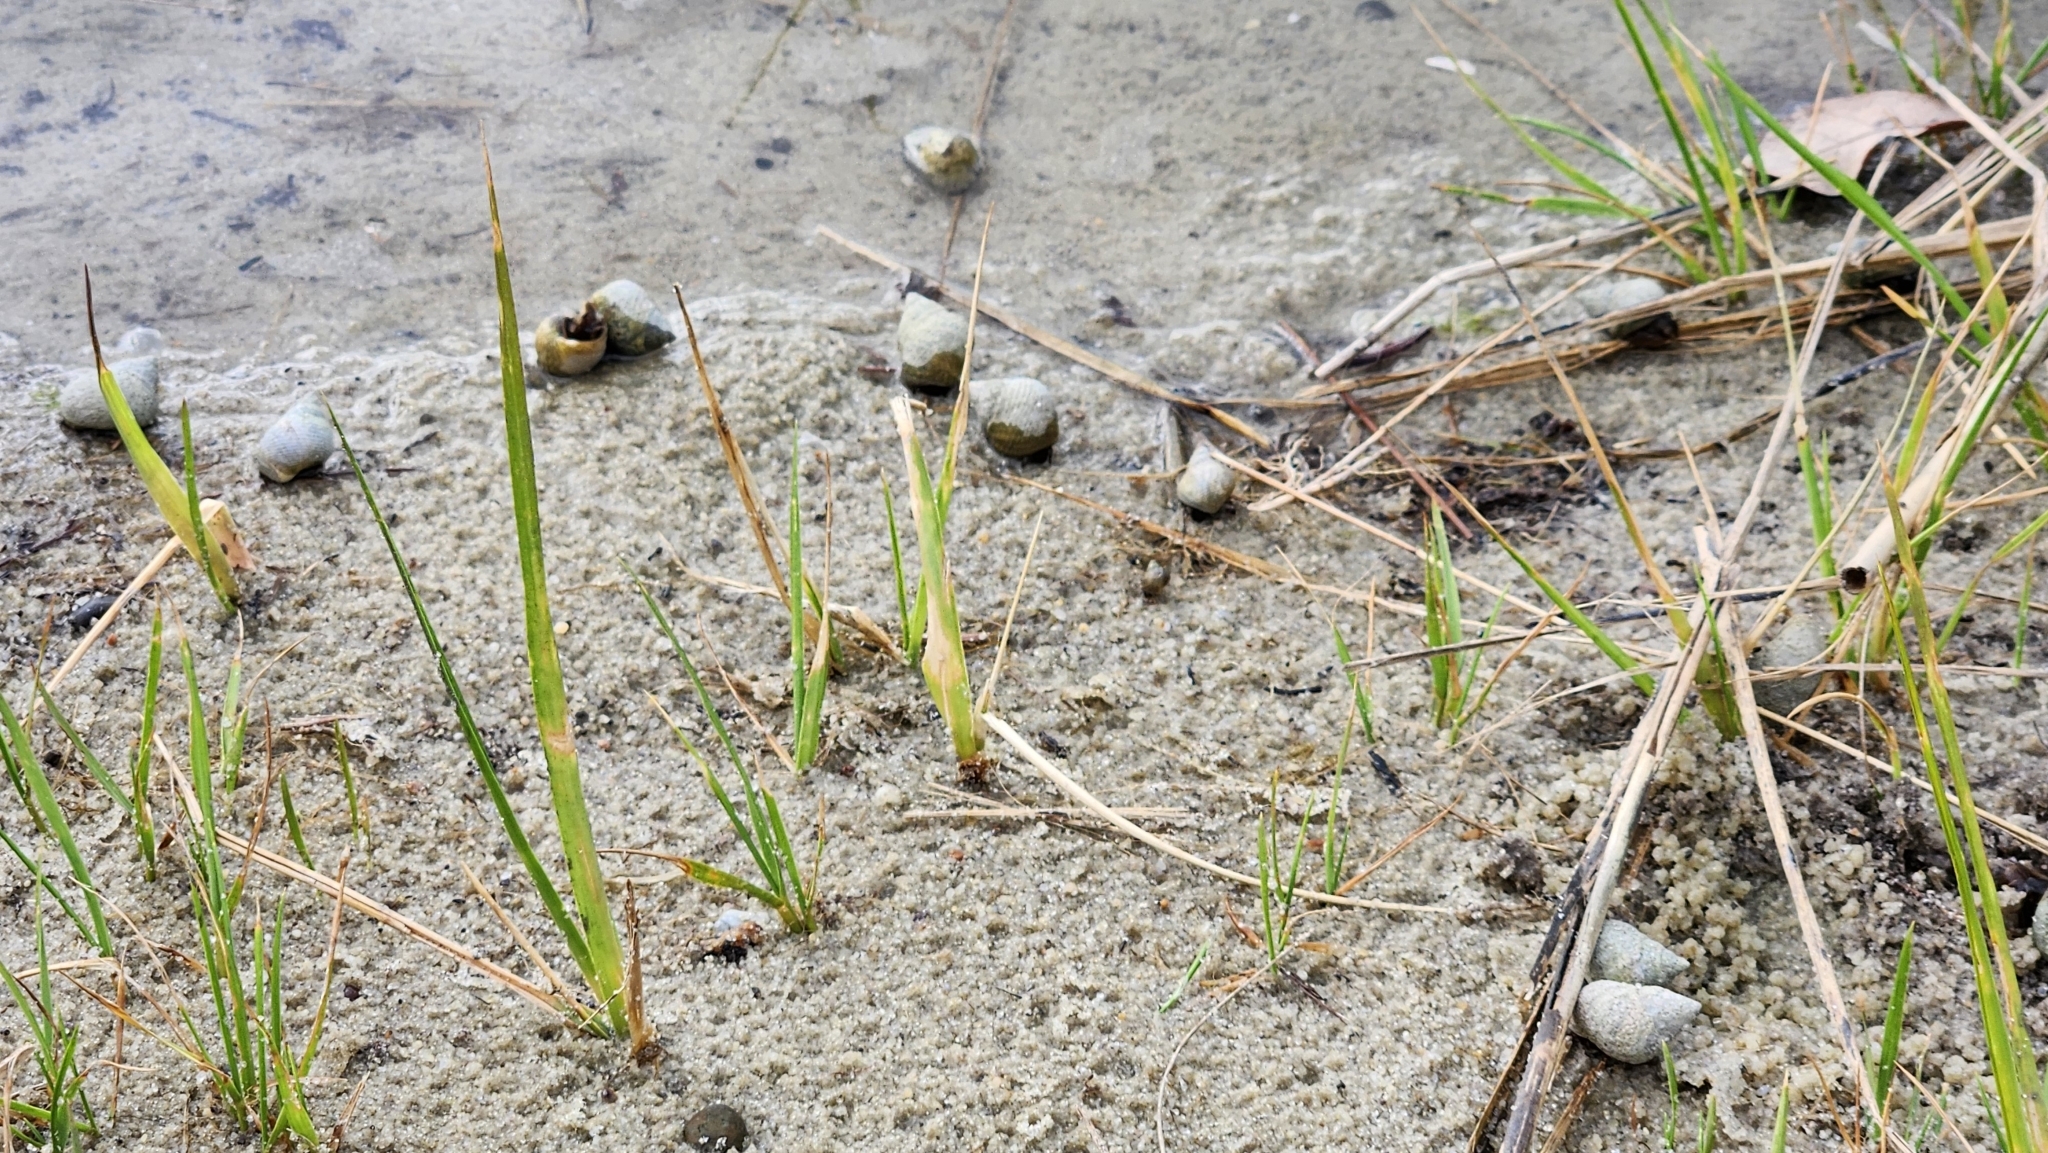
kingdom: Animalia
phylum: Mollusca
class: Gastropoda
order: Littorinimorpha
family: Littorinidae
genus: Littoraria
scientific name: Littoraria irrorata
